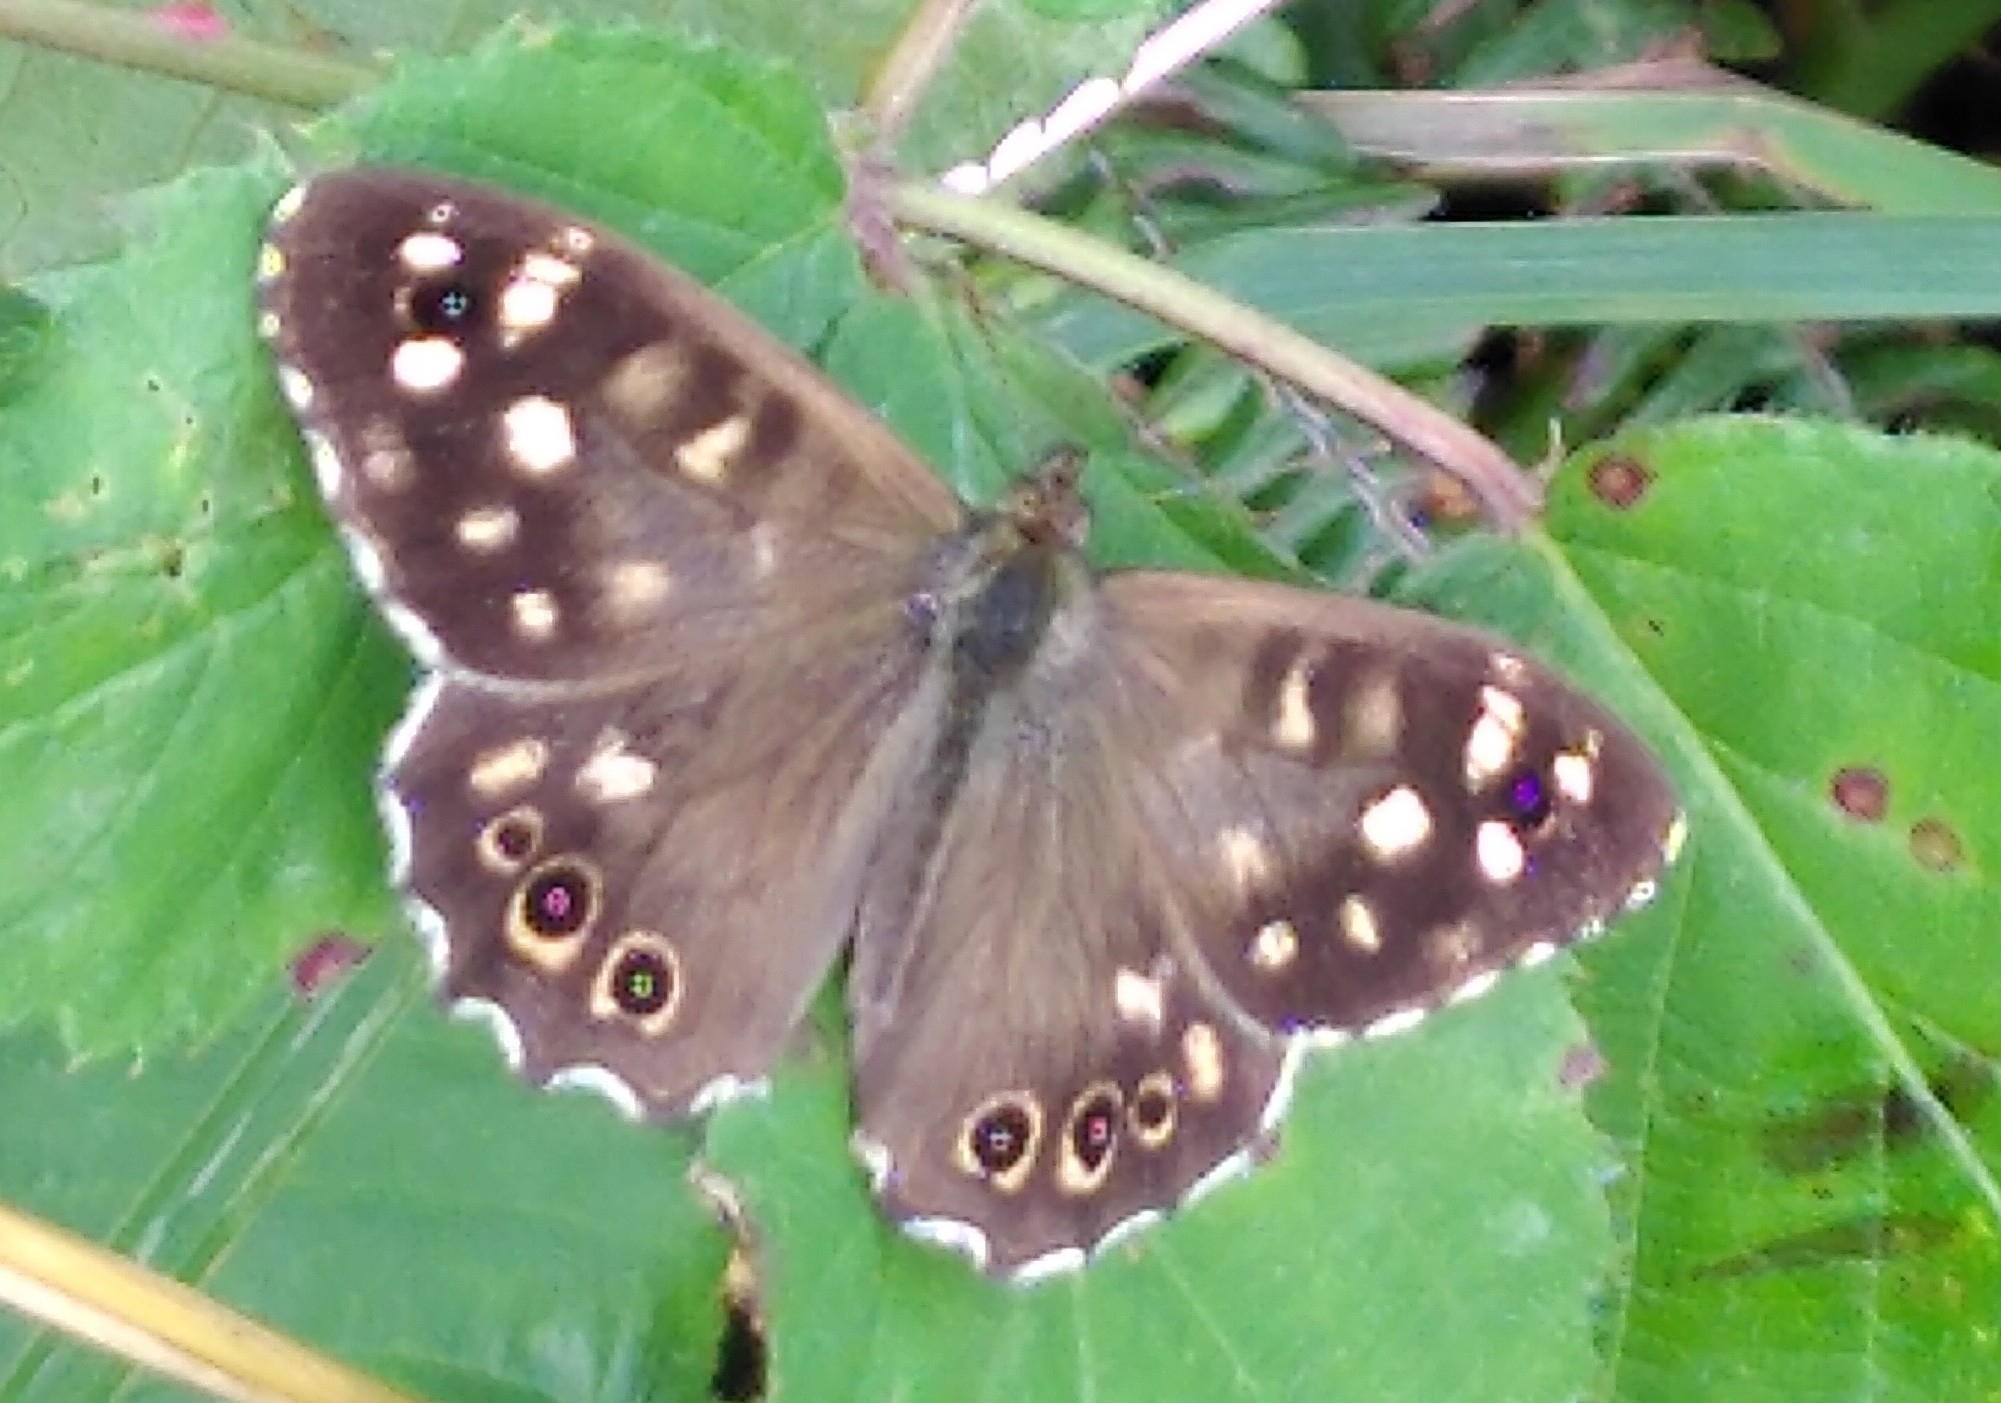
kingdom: Animalia
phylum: Arthropoda
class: Insecta
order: Lepidoptera
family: Nymphalidae
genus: Pararge
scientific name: Pararge aegeria
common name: Speckled wood
